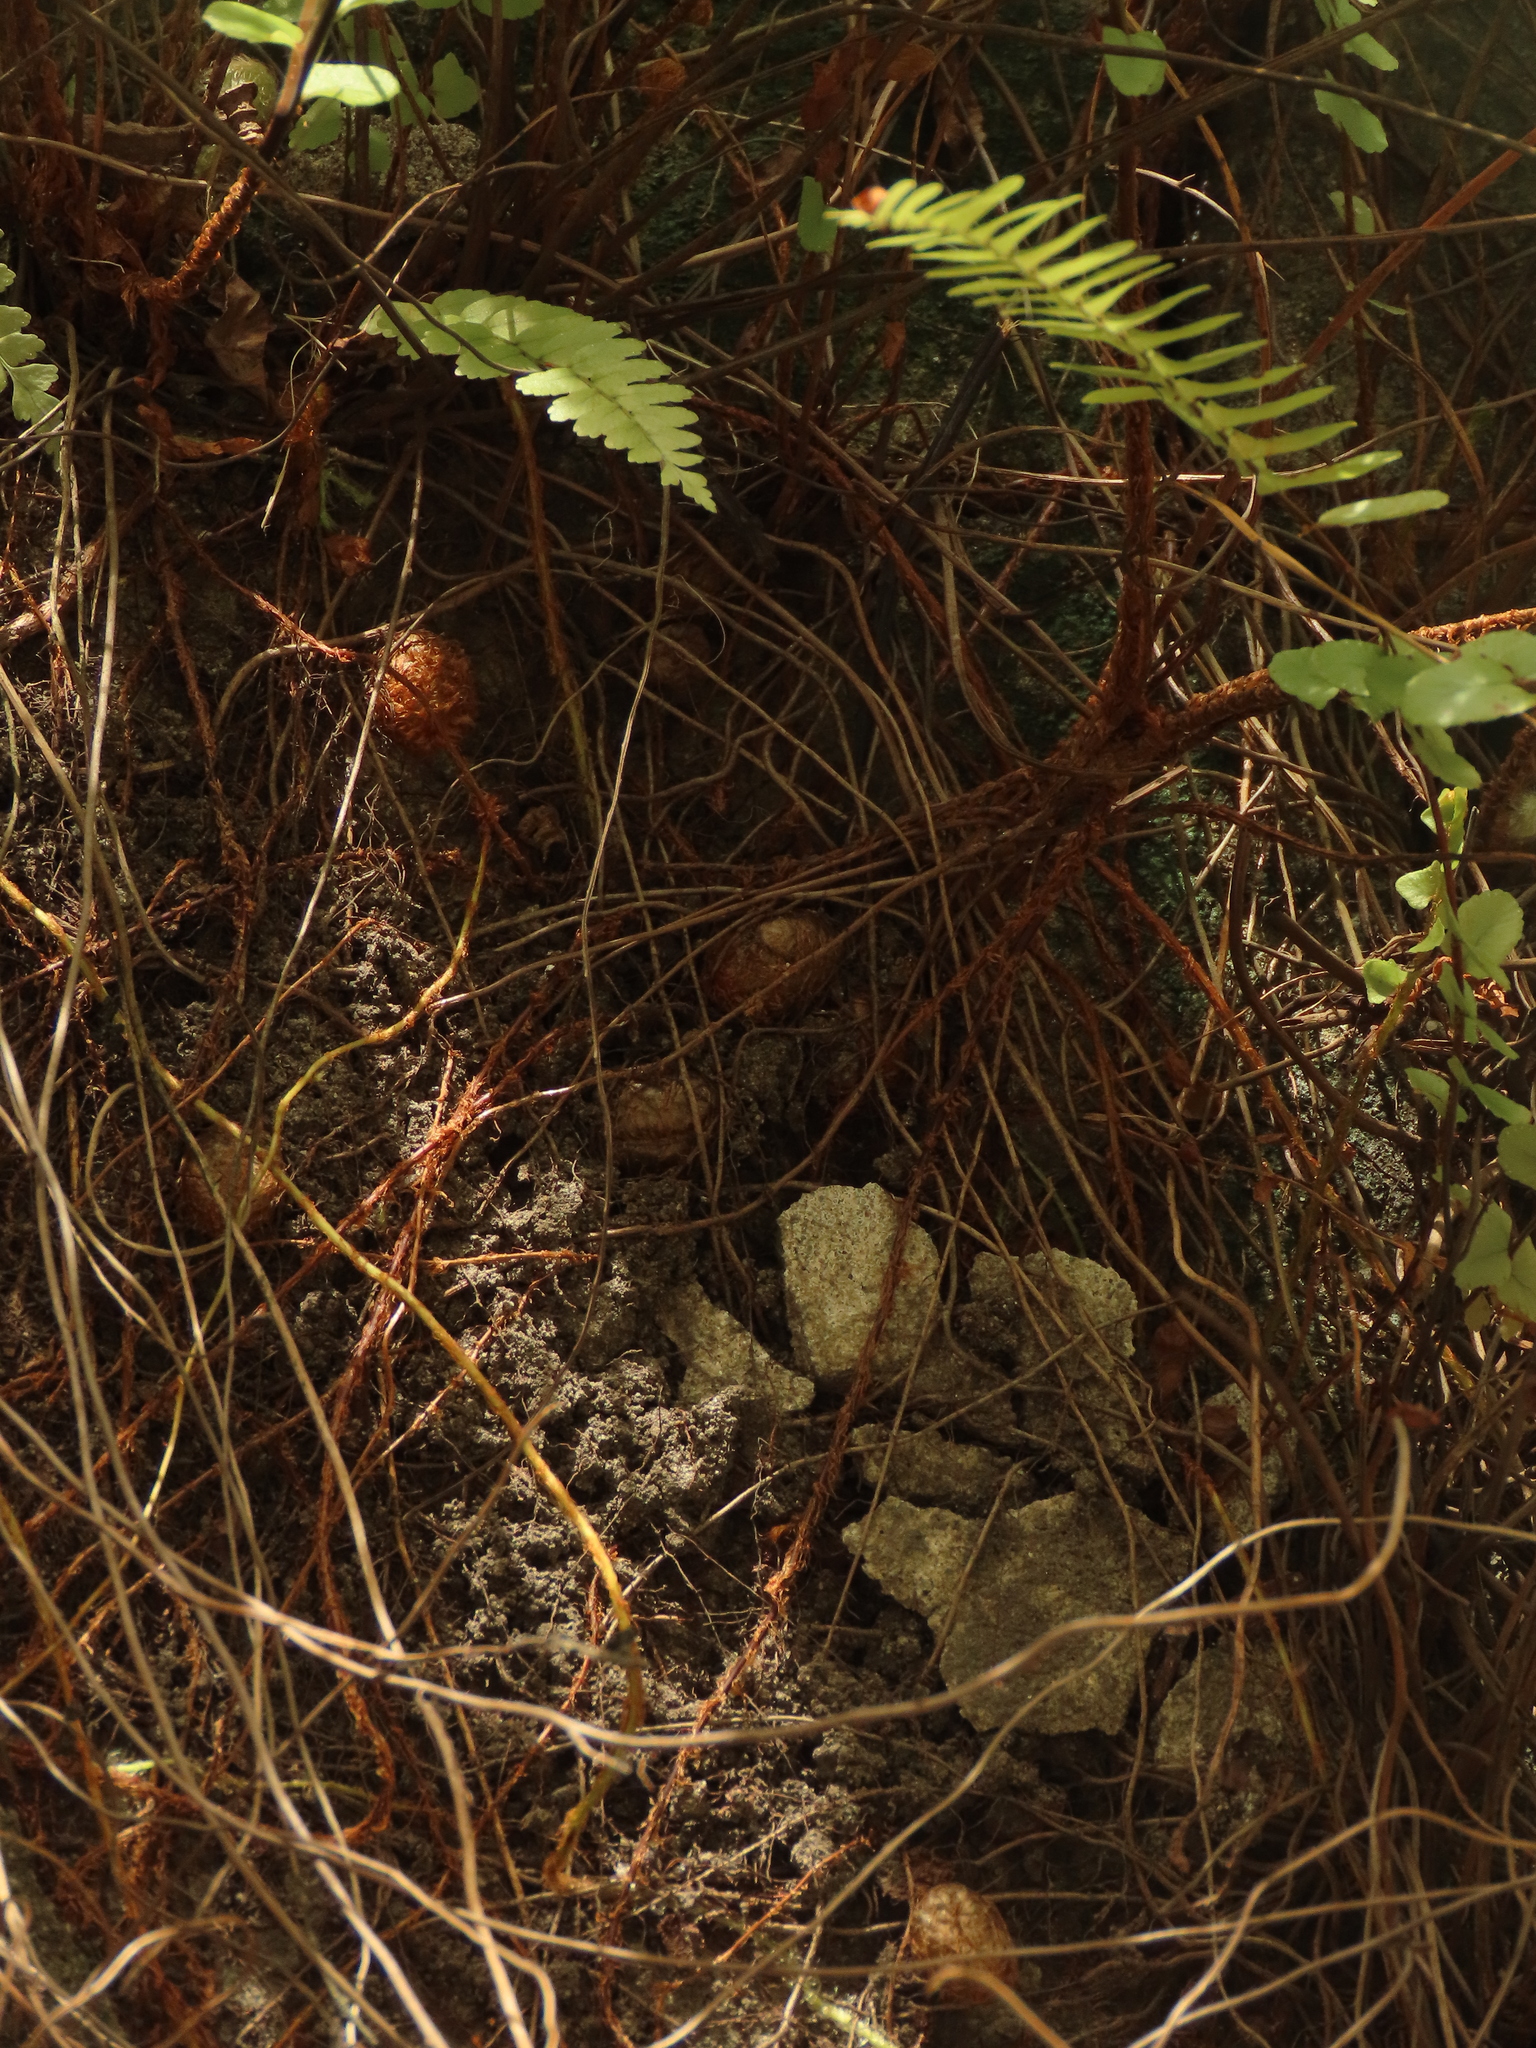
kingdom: Plantae
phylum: Tracheophyta
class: Polypodiopsida
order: Polypodiales
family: Nephrolepidaceae
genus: Nephrolepis
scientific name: Nephrolepis cordifolia
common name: Narrow swordfern
